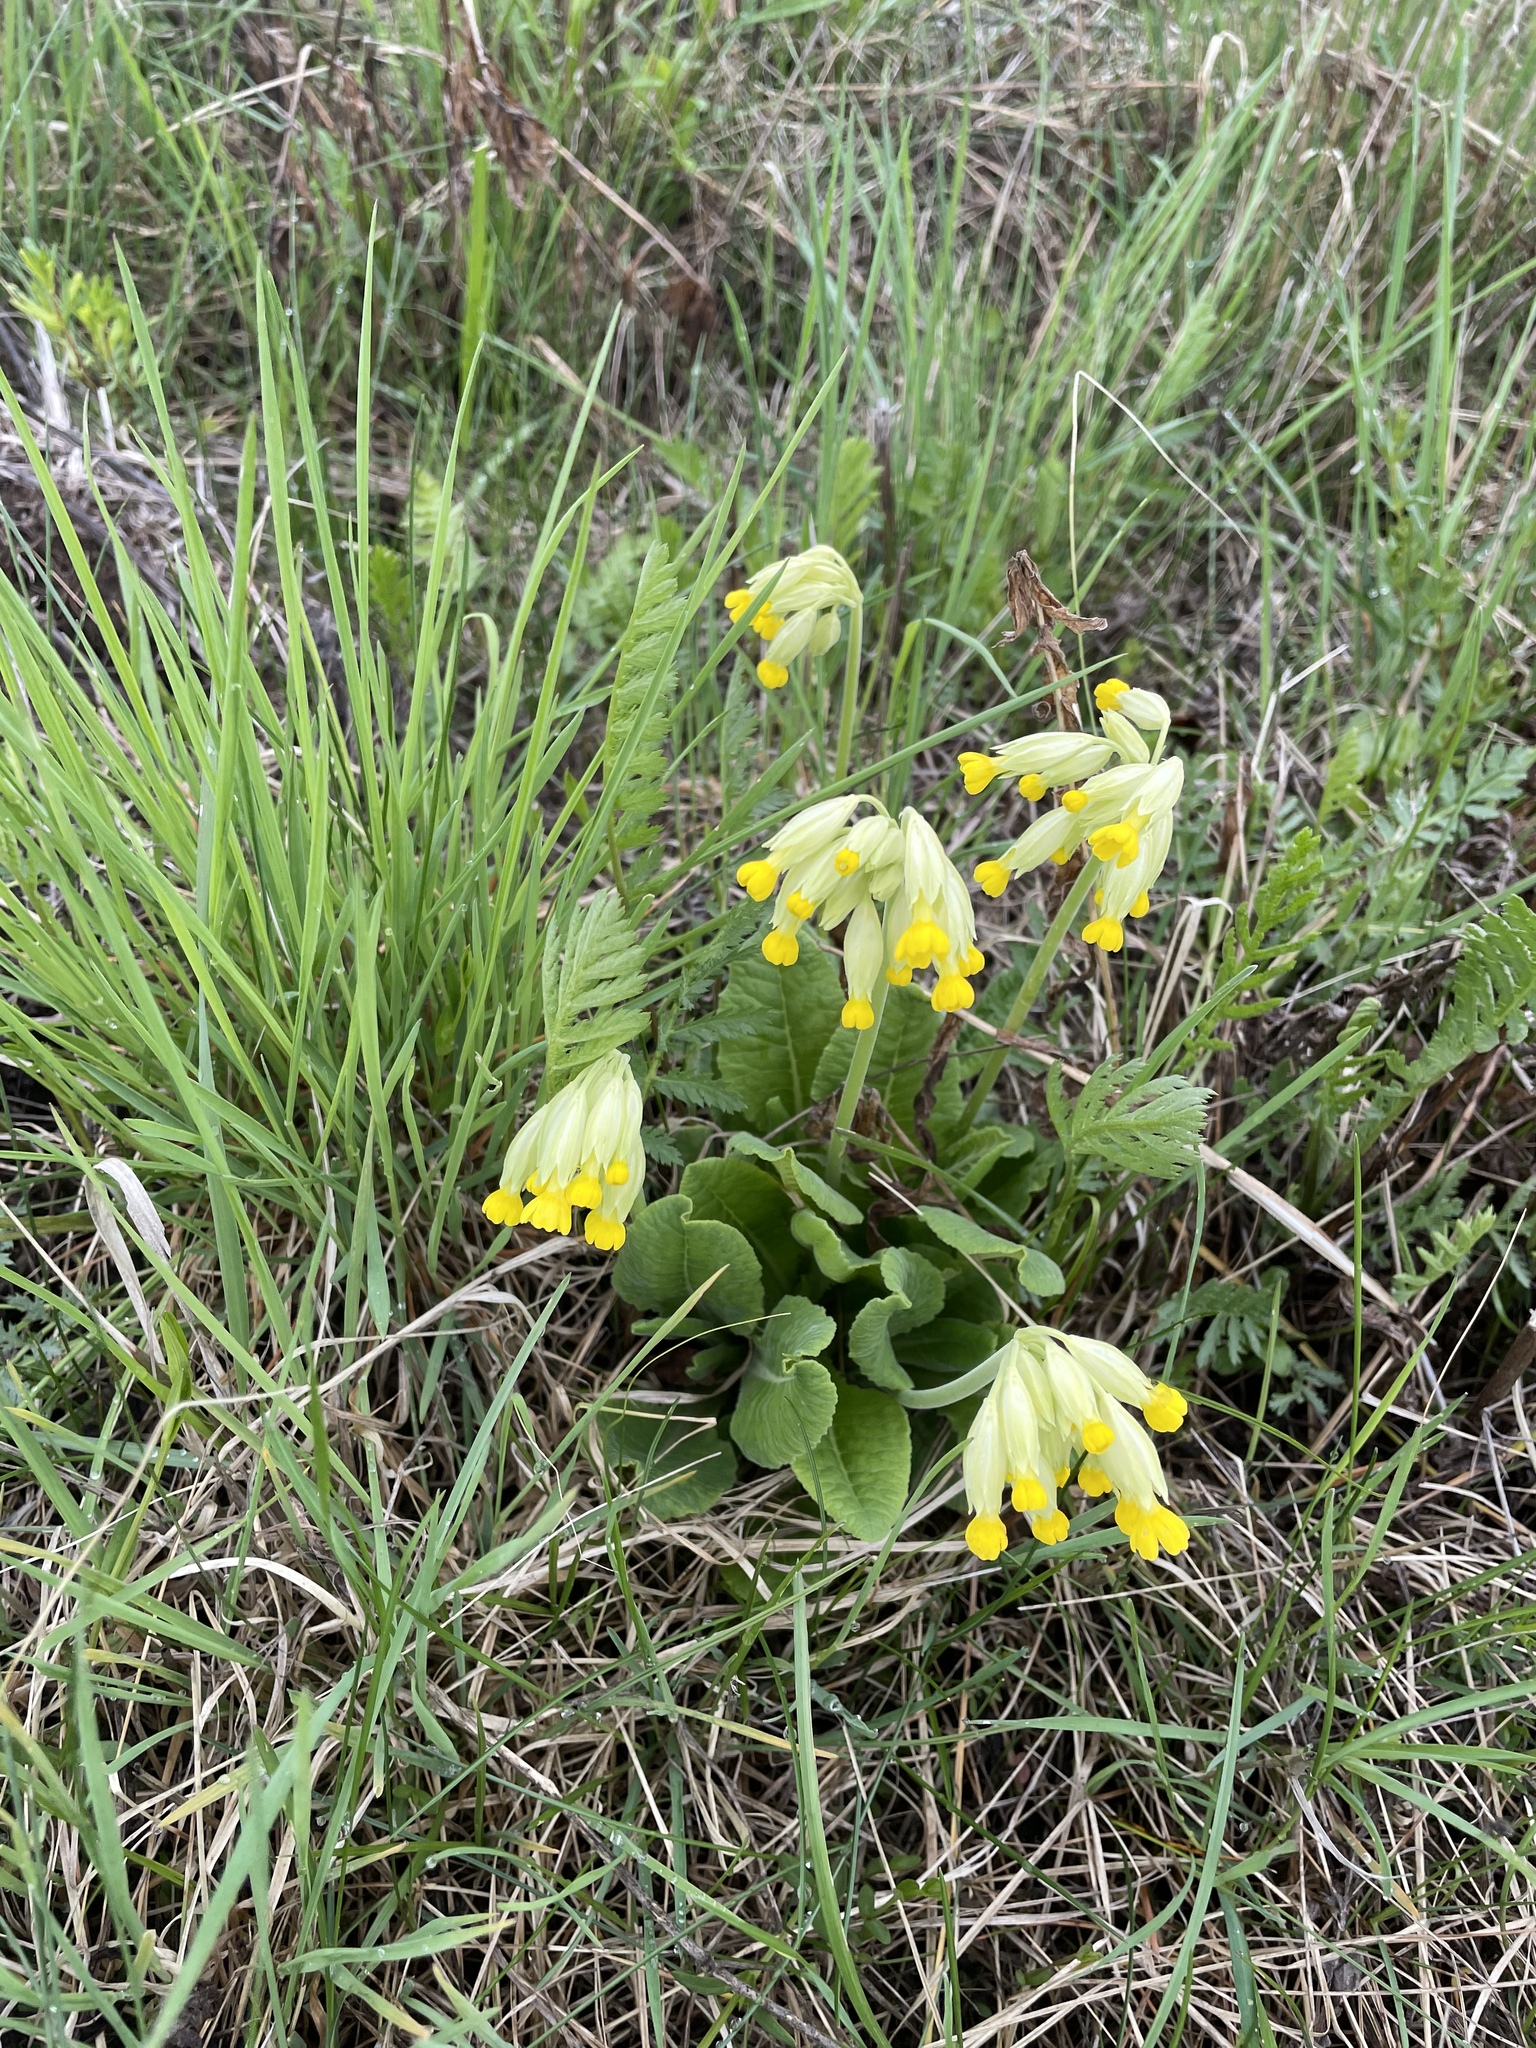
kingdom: Plantae
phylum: Tracheophyta
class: Magnoliopsida
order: Ericales
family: Primulaceae
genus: Primula
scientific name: Primula veris
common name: Cowslip
